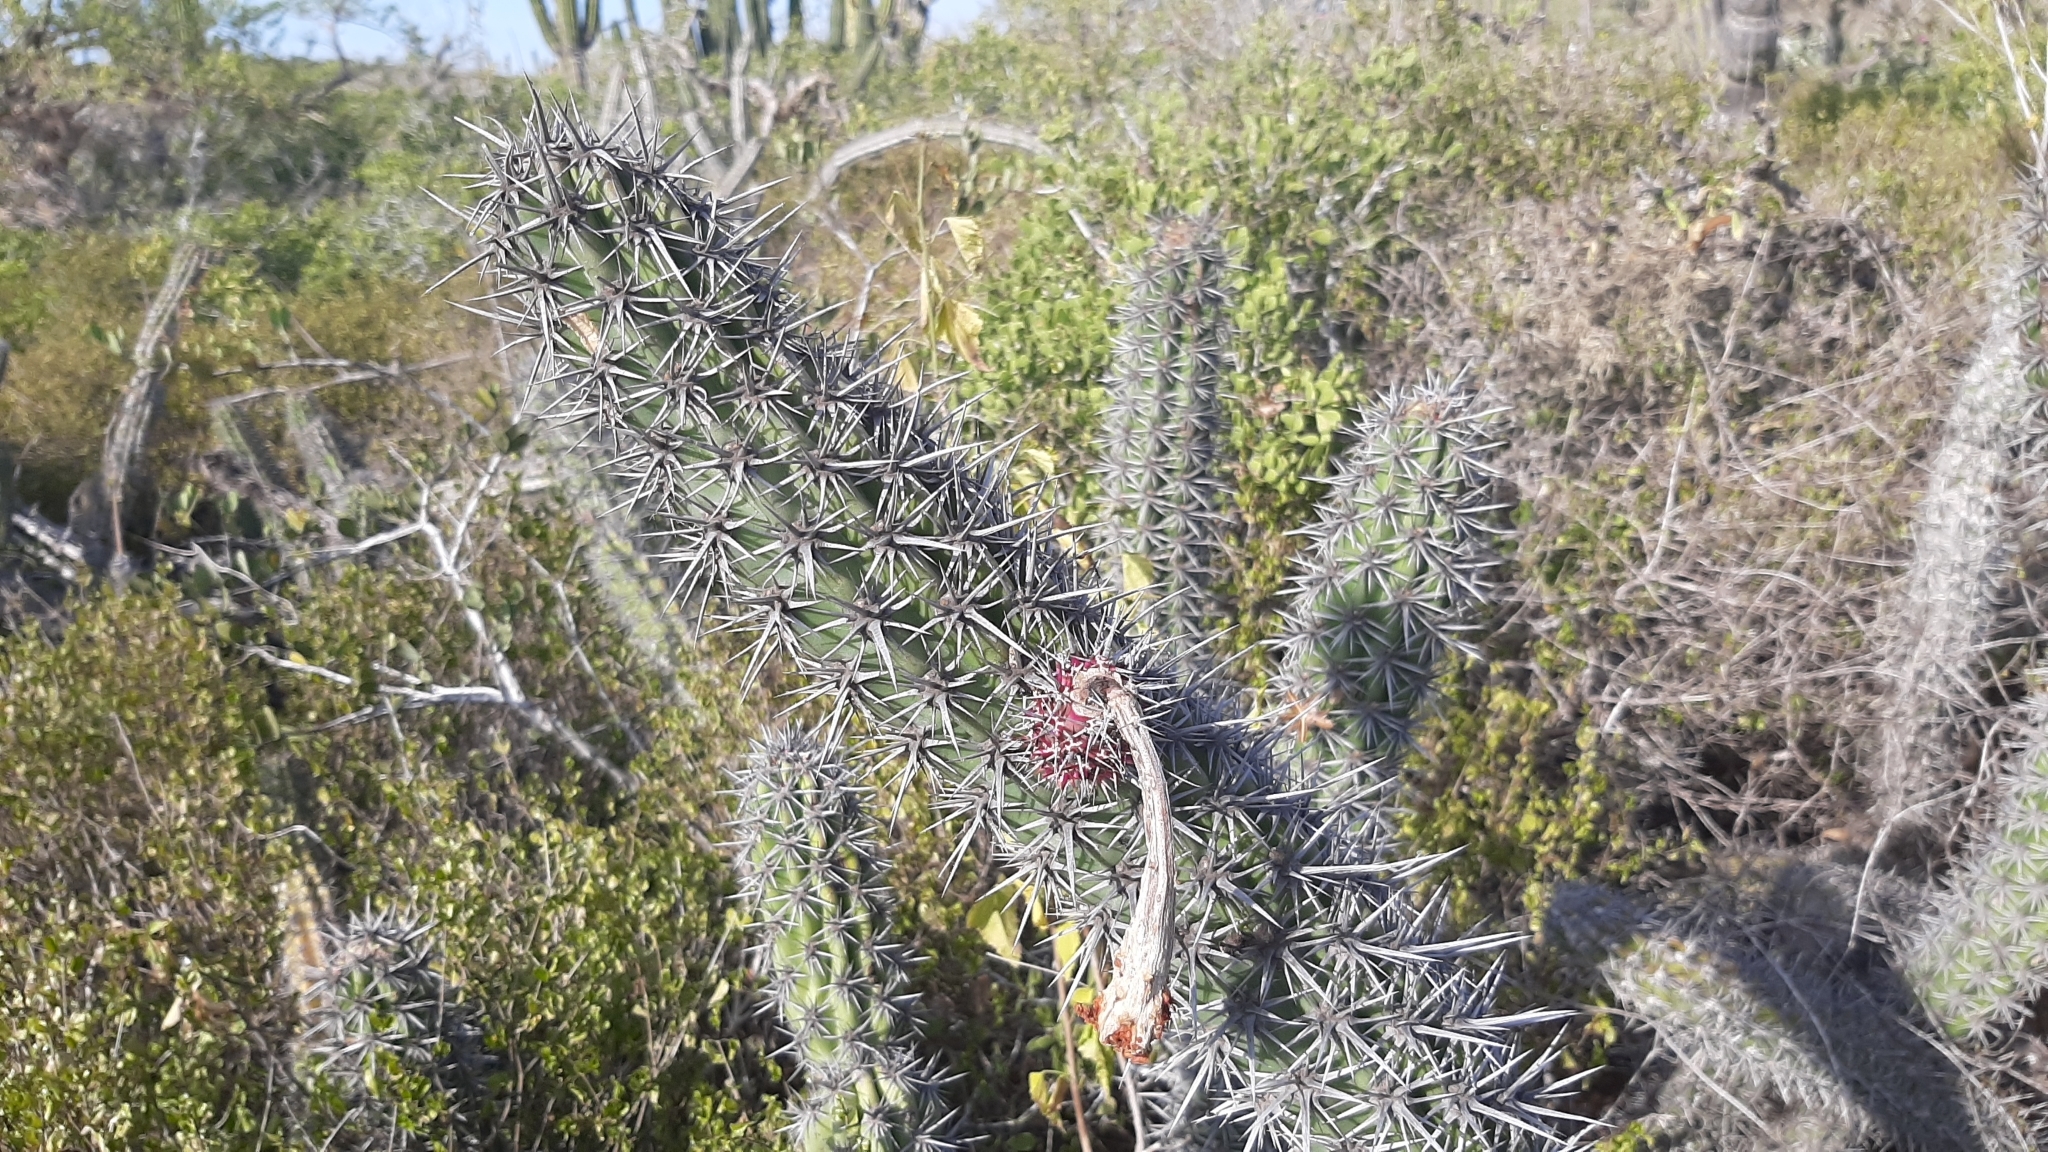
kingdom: Plantae
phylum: Tracheophyta
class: Magnoliopsida
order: Caryophyllales
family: Cactaceae
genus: Stenocereus
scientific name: Stenocereus gummosus
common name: Dagger cactus
